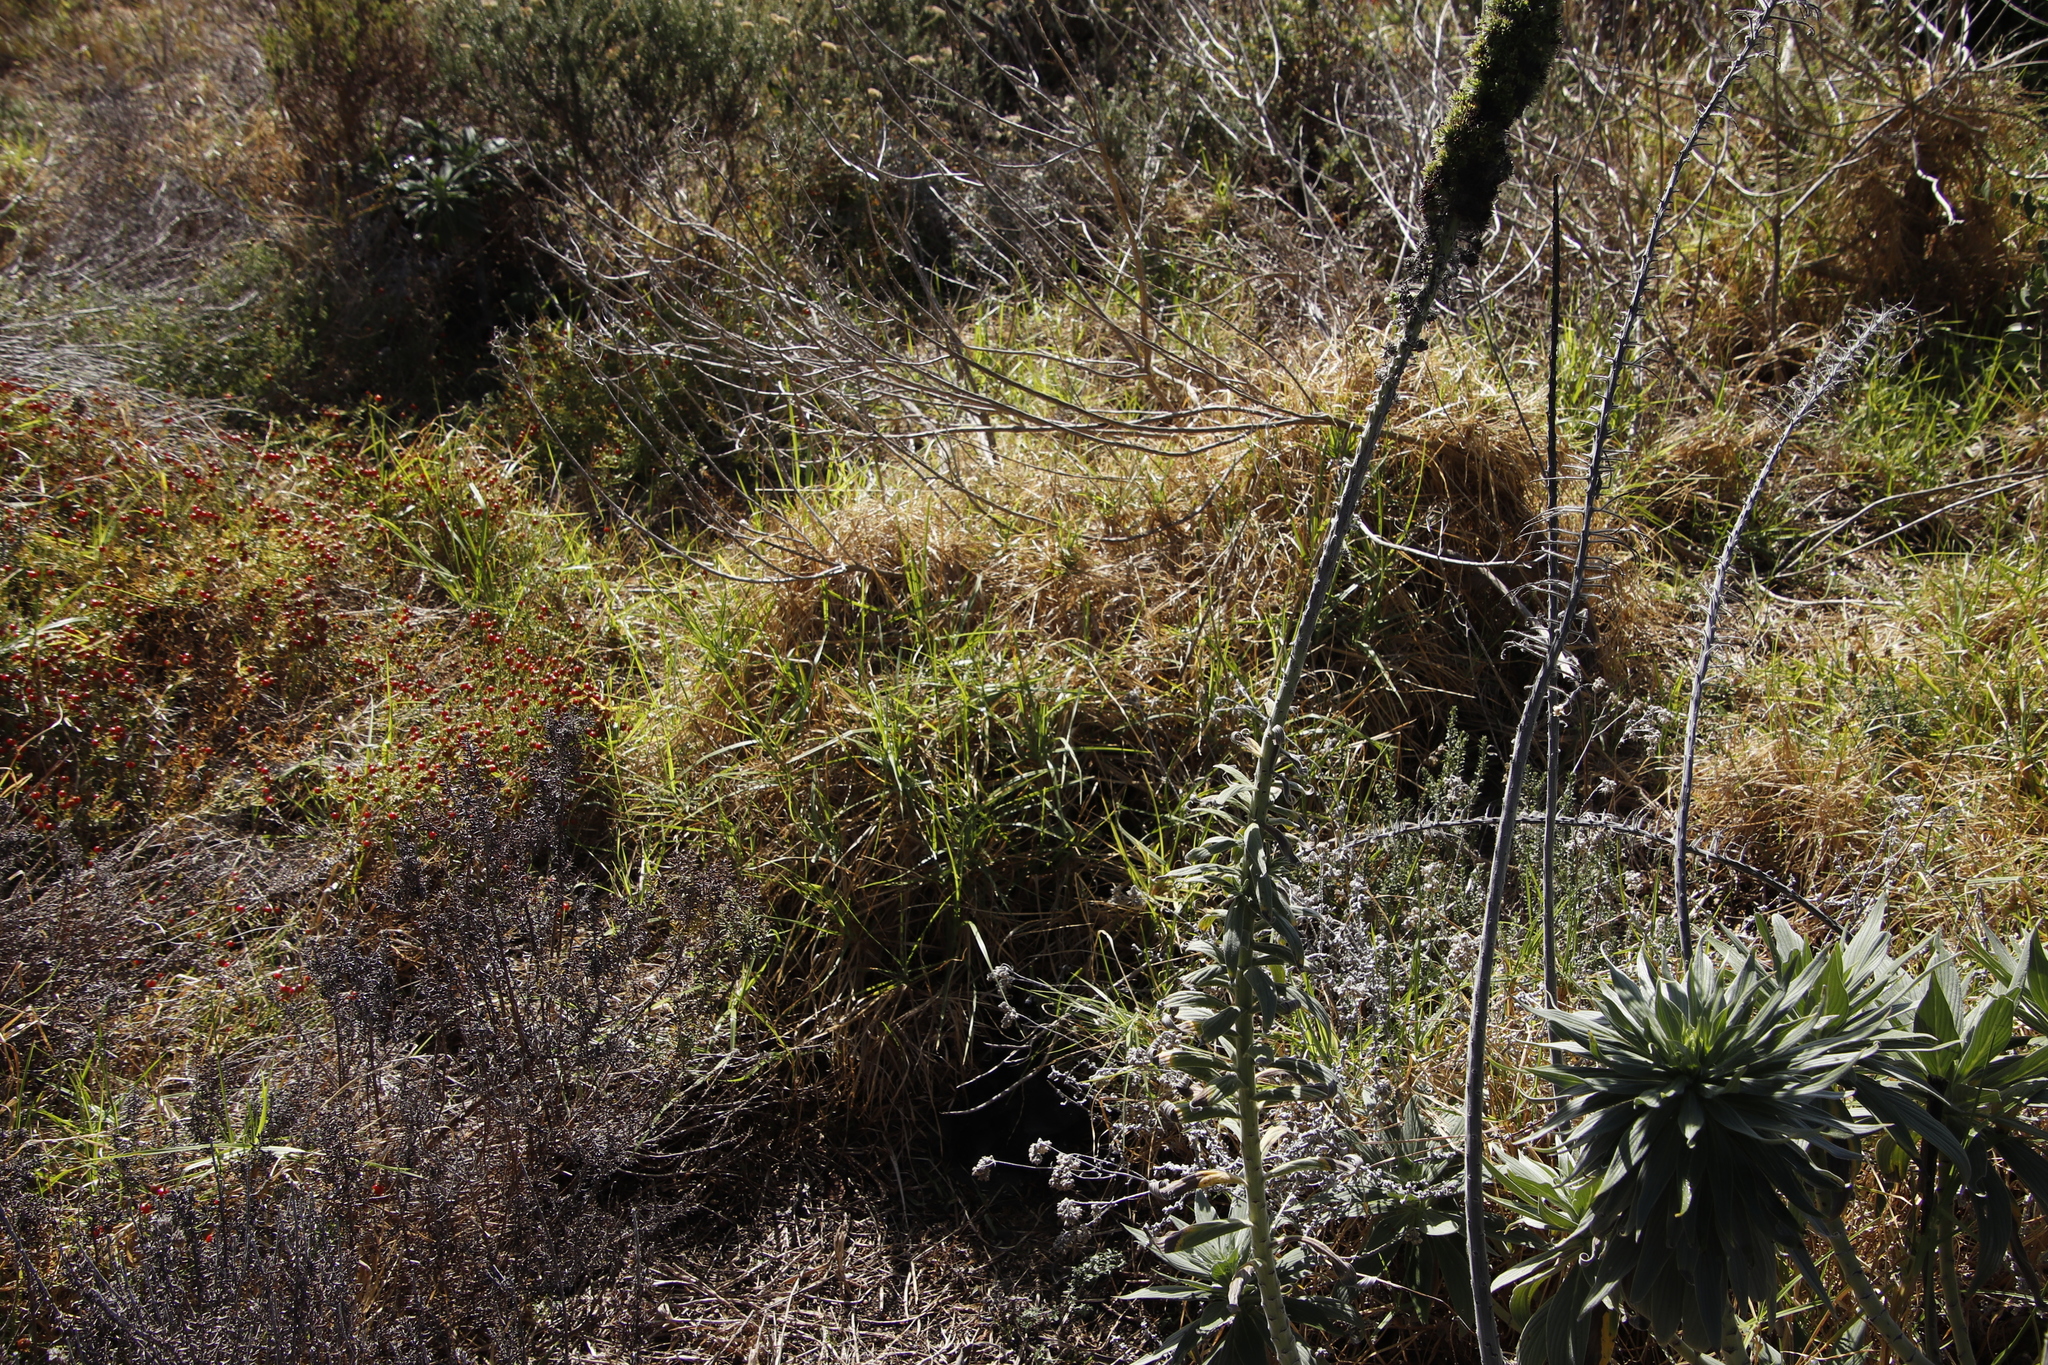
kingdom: Plantae
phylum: Tracheophyta
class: Liliopsida
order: Poales
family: Poaceae
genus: Cenchrus
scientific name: Cenchrus clandestinus
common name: Kikuyugrass
